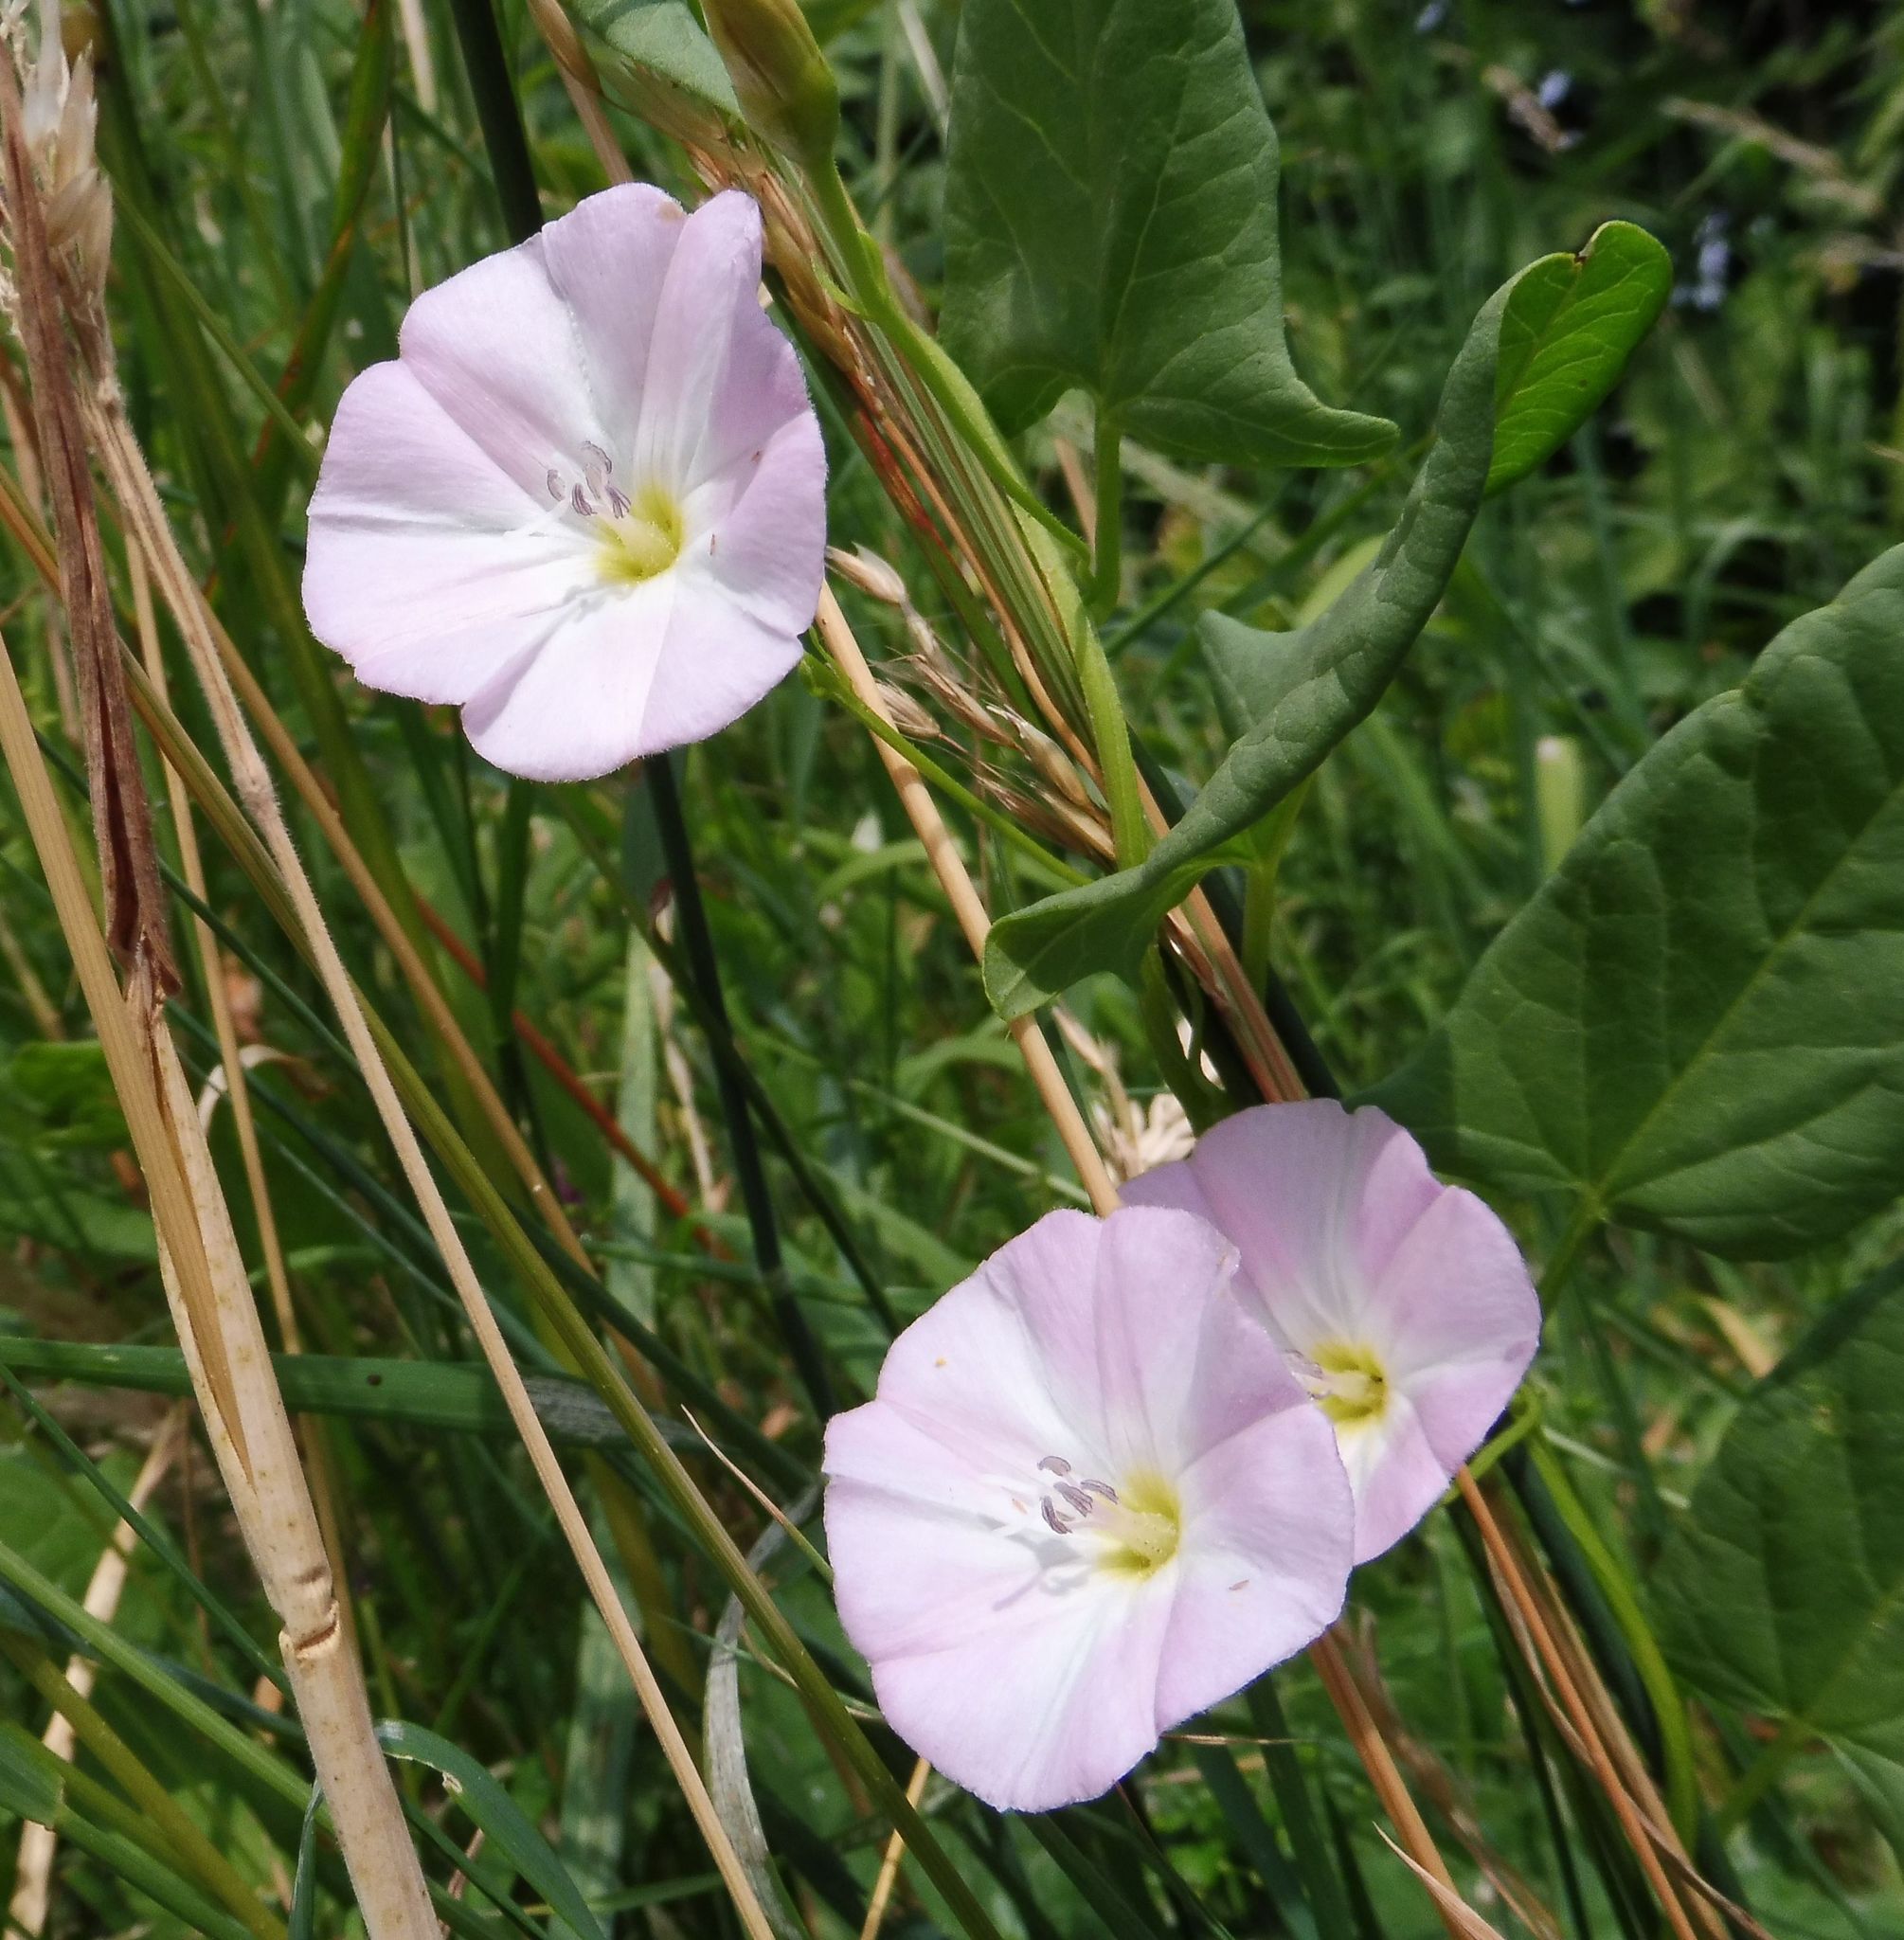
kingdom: Plantae
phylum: Tracheophyta
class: Magnoliopsida
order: Solanales
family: Convolvulaceae
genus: Convolvulus
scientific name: Convolvulus arvensis
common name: Field bindweed
